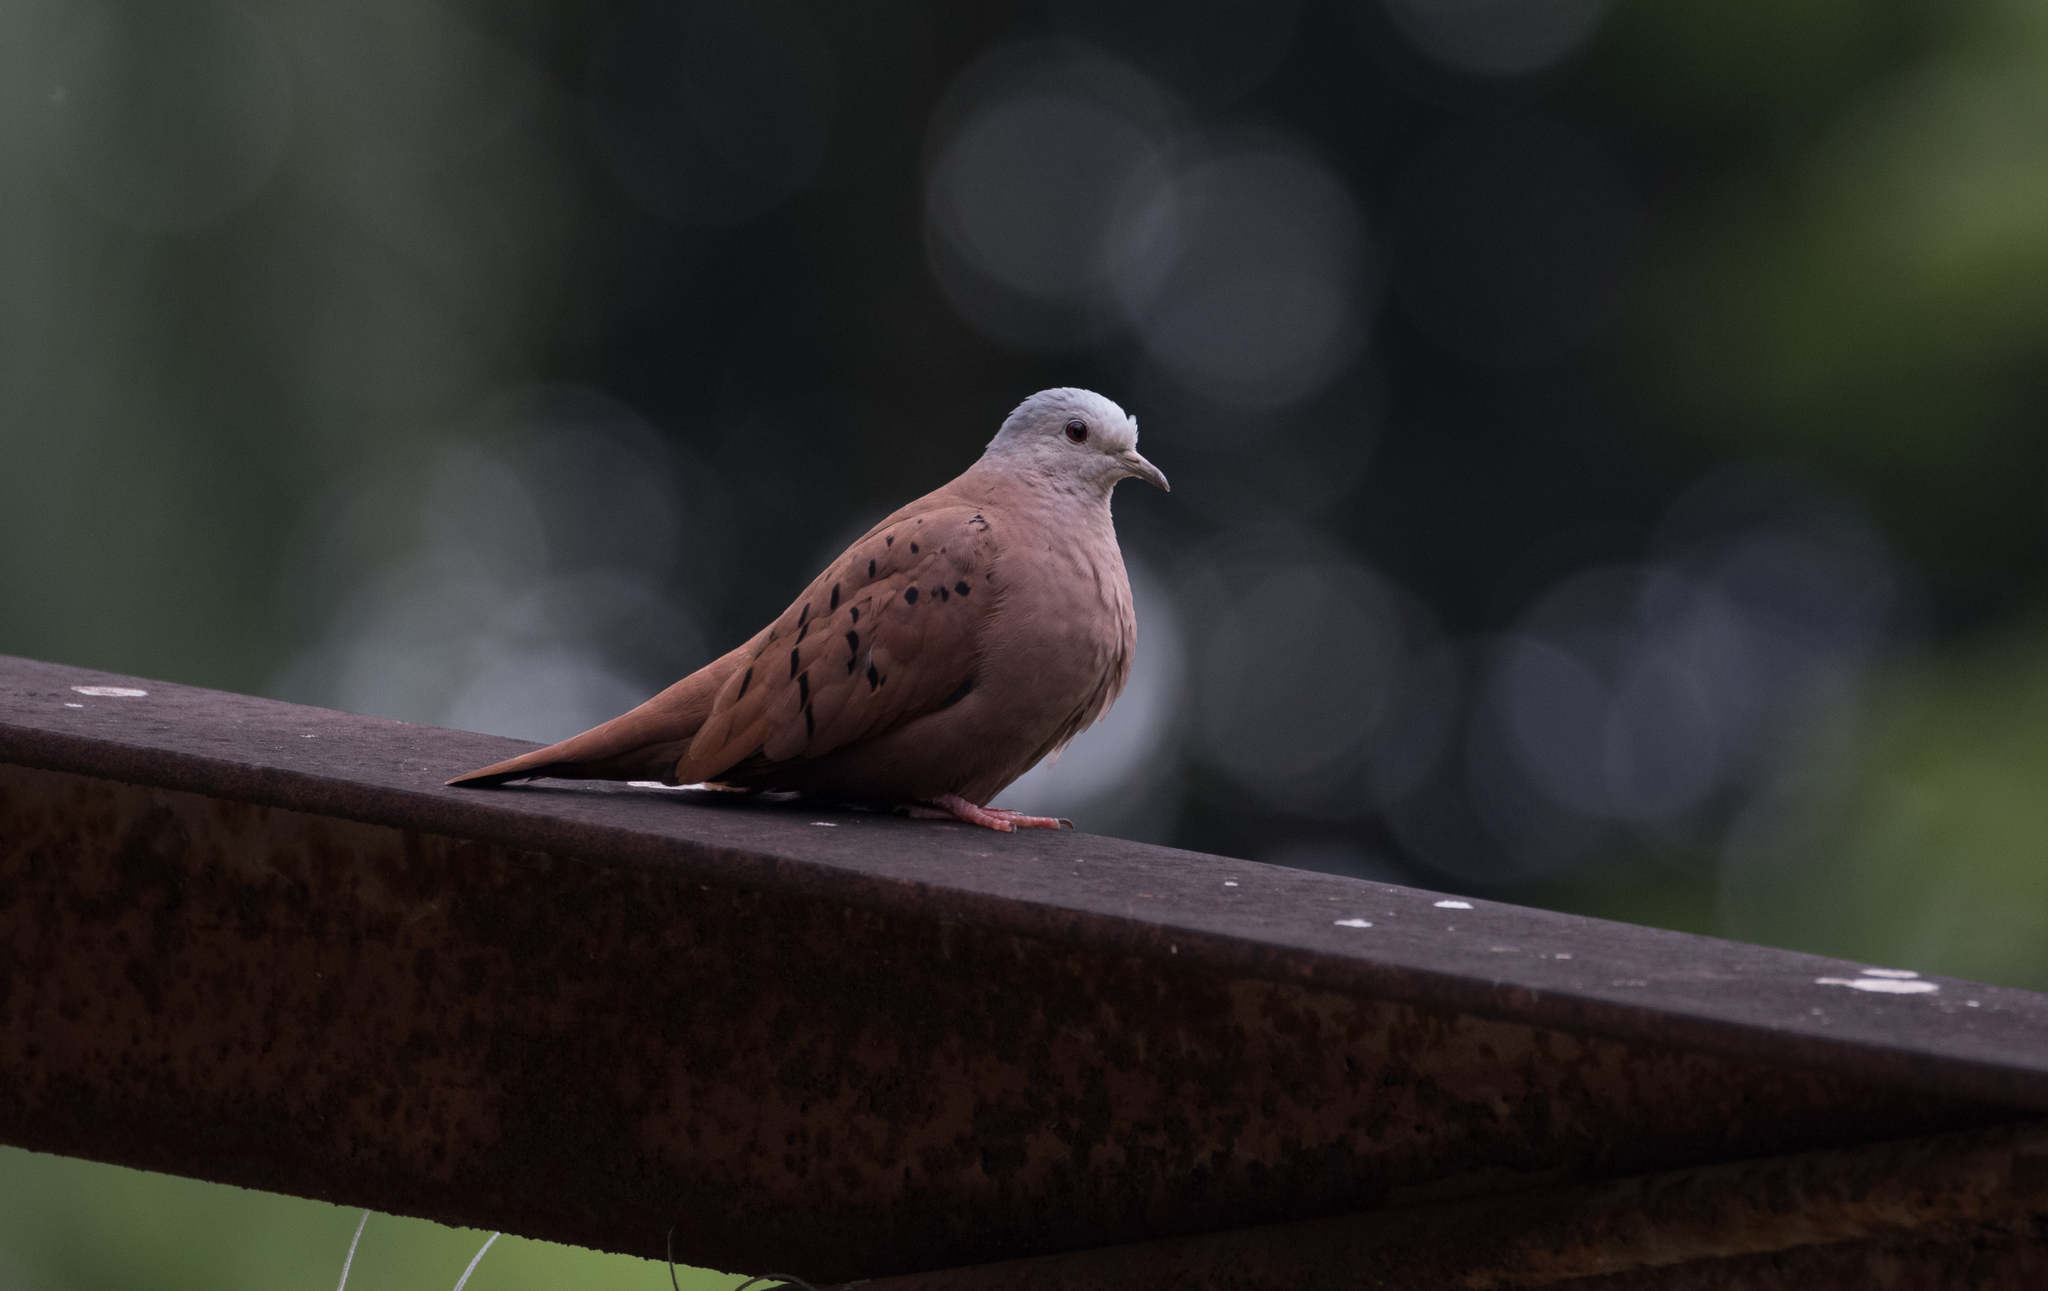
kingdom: Animalia
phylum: Chordata
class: Aves
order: Columbiformes
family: Columbidae
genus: Columbina
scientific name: Columbina talpacoti
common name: Ruddy ground dove
